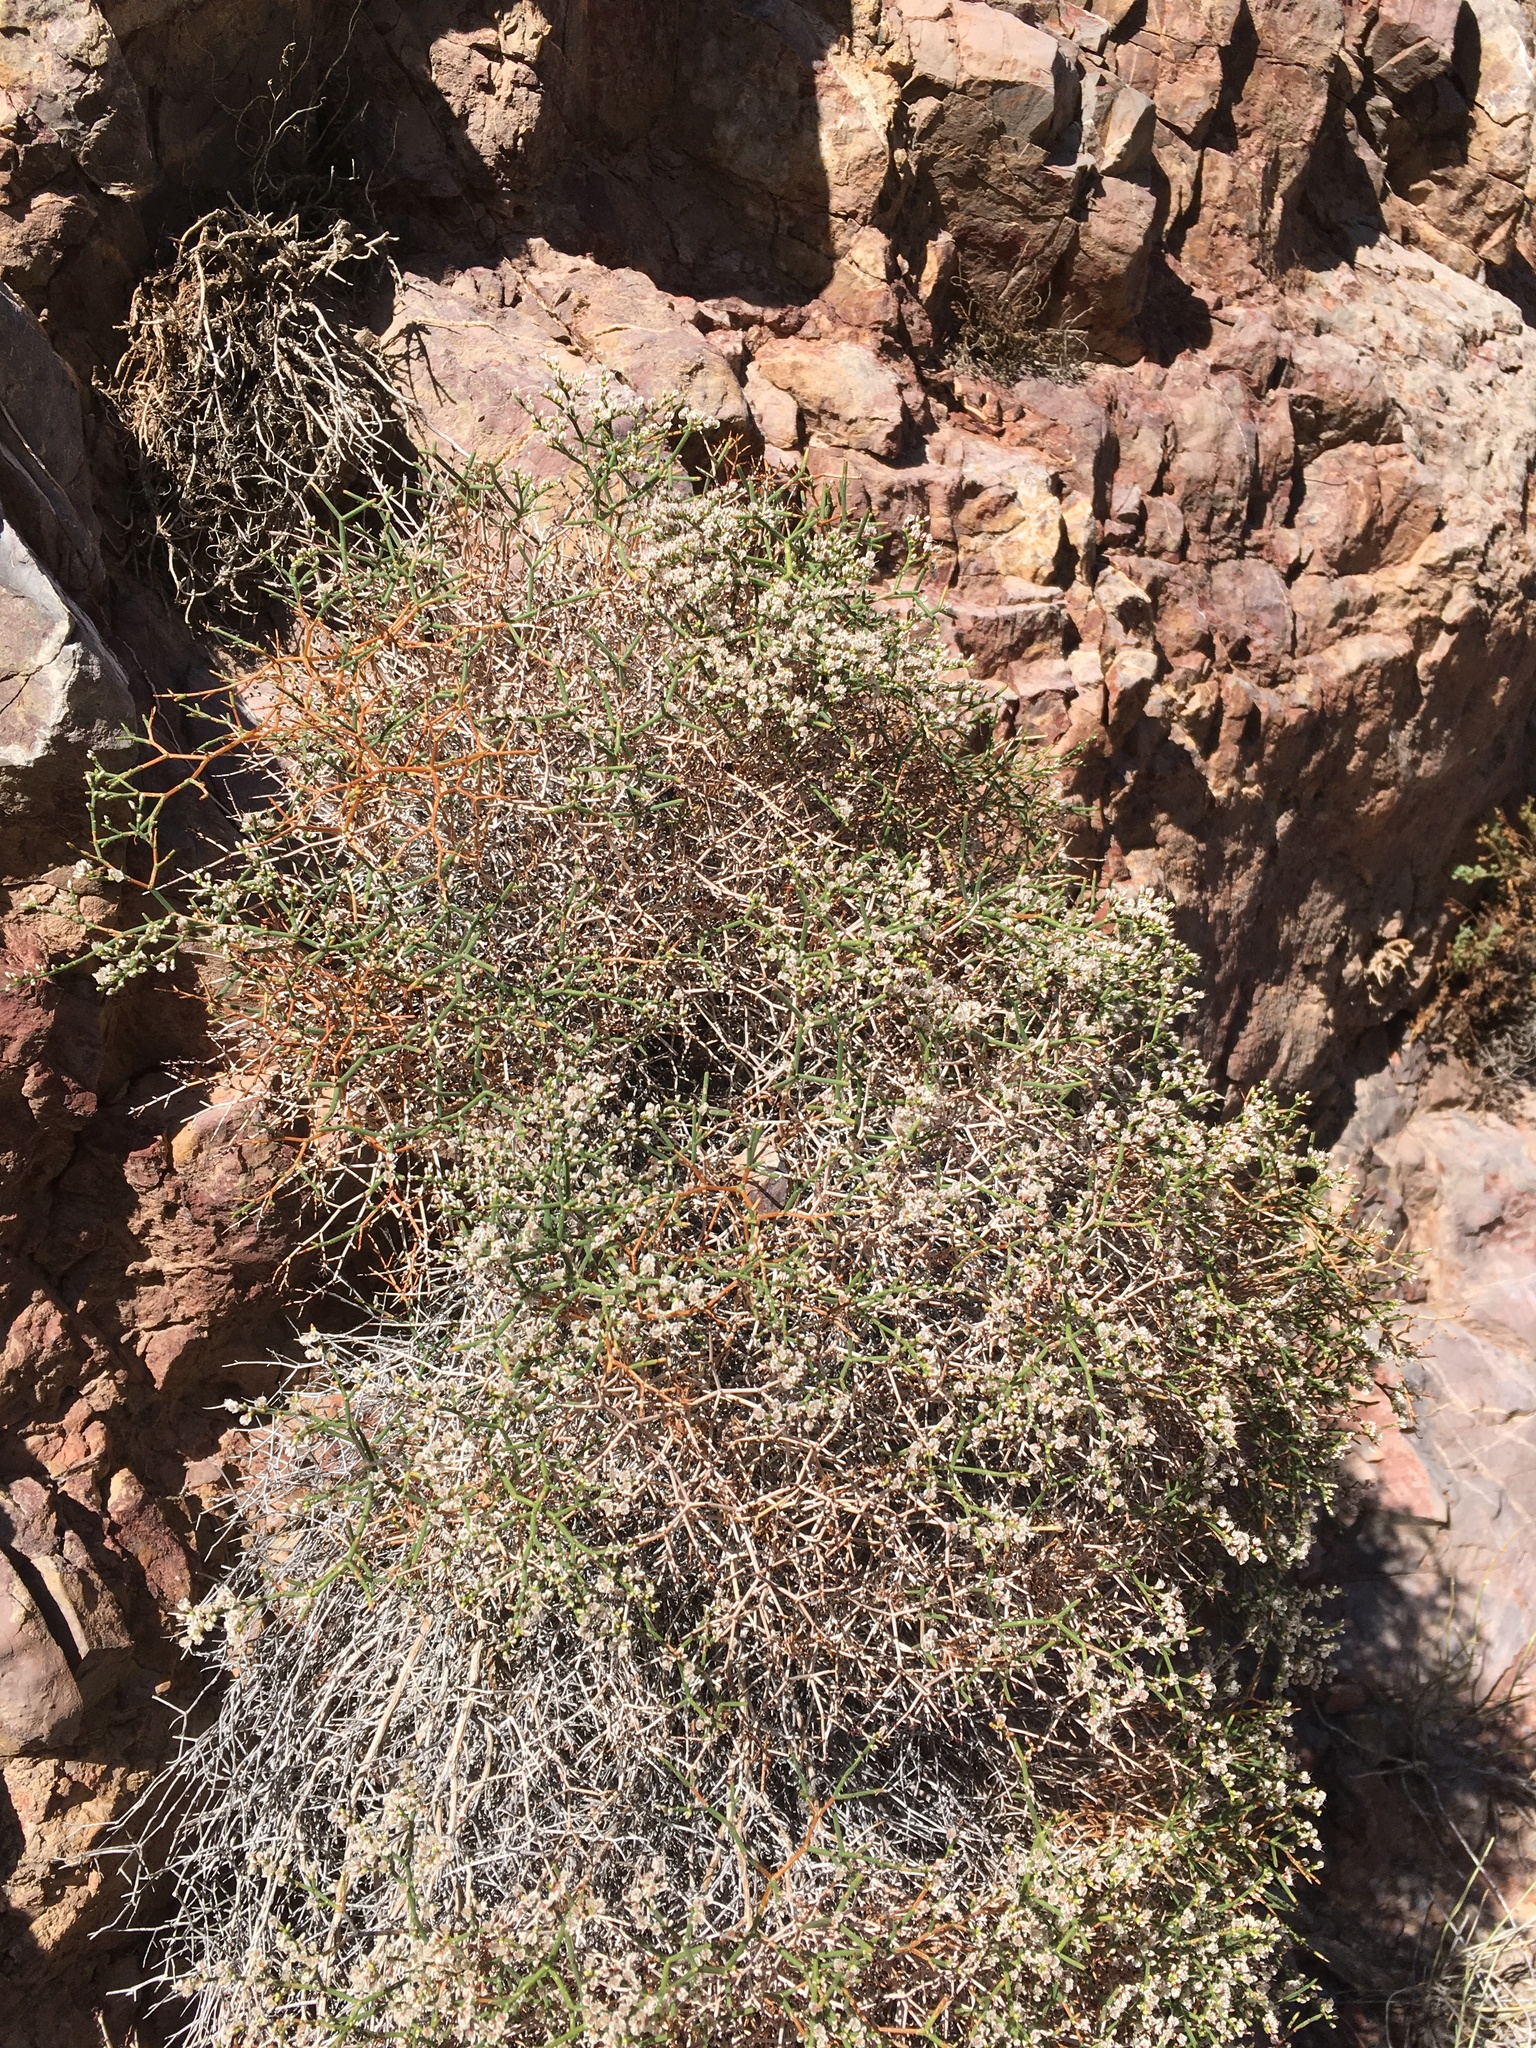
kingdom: Plantae
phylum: Tracheophyta
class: Magnoliopsida
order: Caryophyllales
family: Polygonaceae
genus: Eriogonum
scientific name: Eriogonum heermannii
